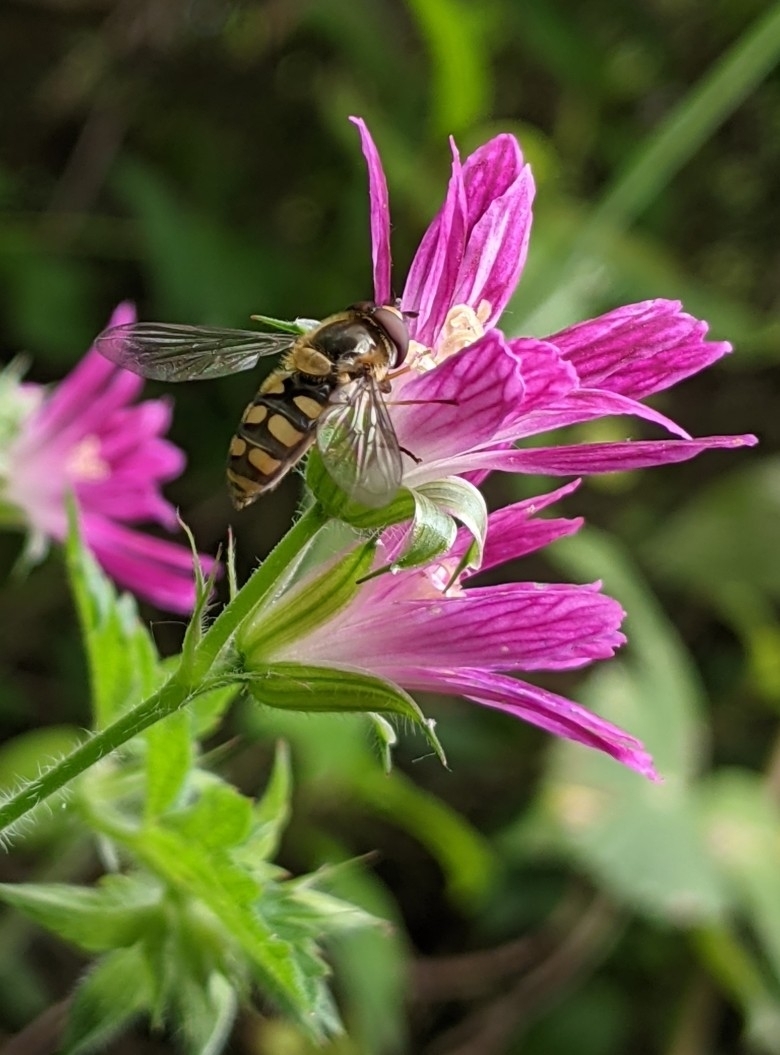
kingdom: Animalia
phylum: Arthropoda
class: Insecta
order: Diptera
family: Syrphidae
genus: Eupeodes
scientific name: Eupeodes
